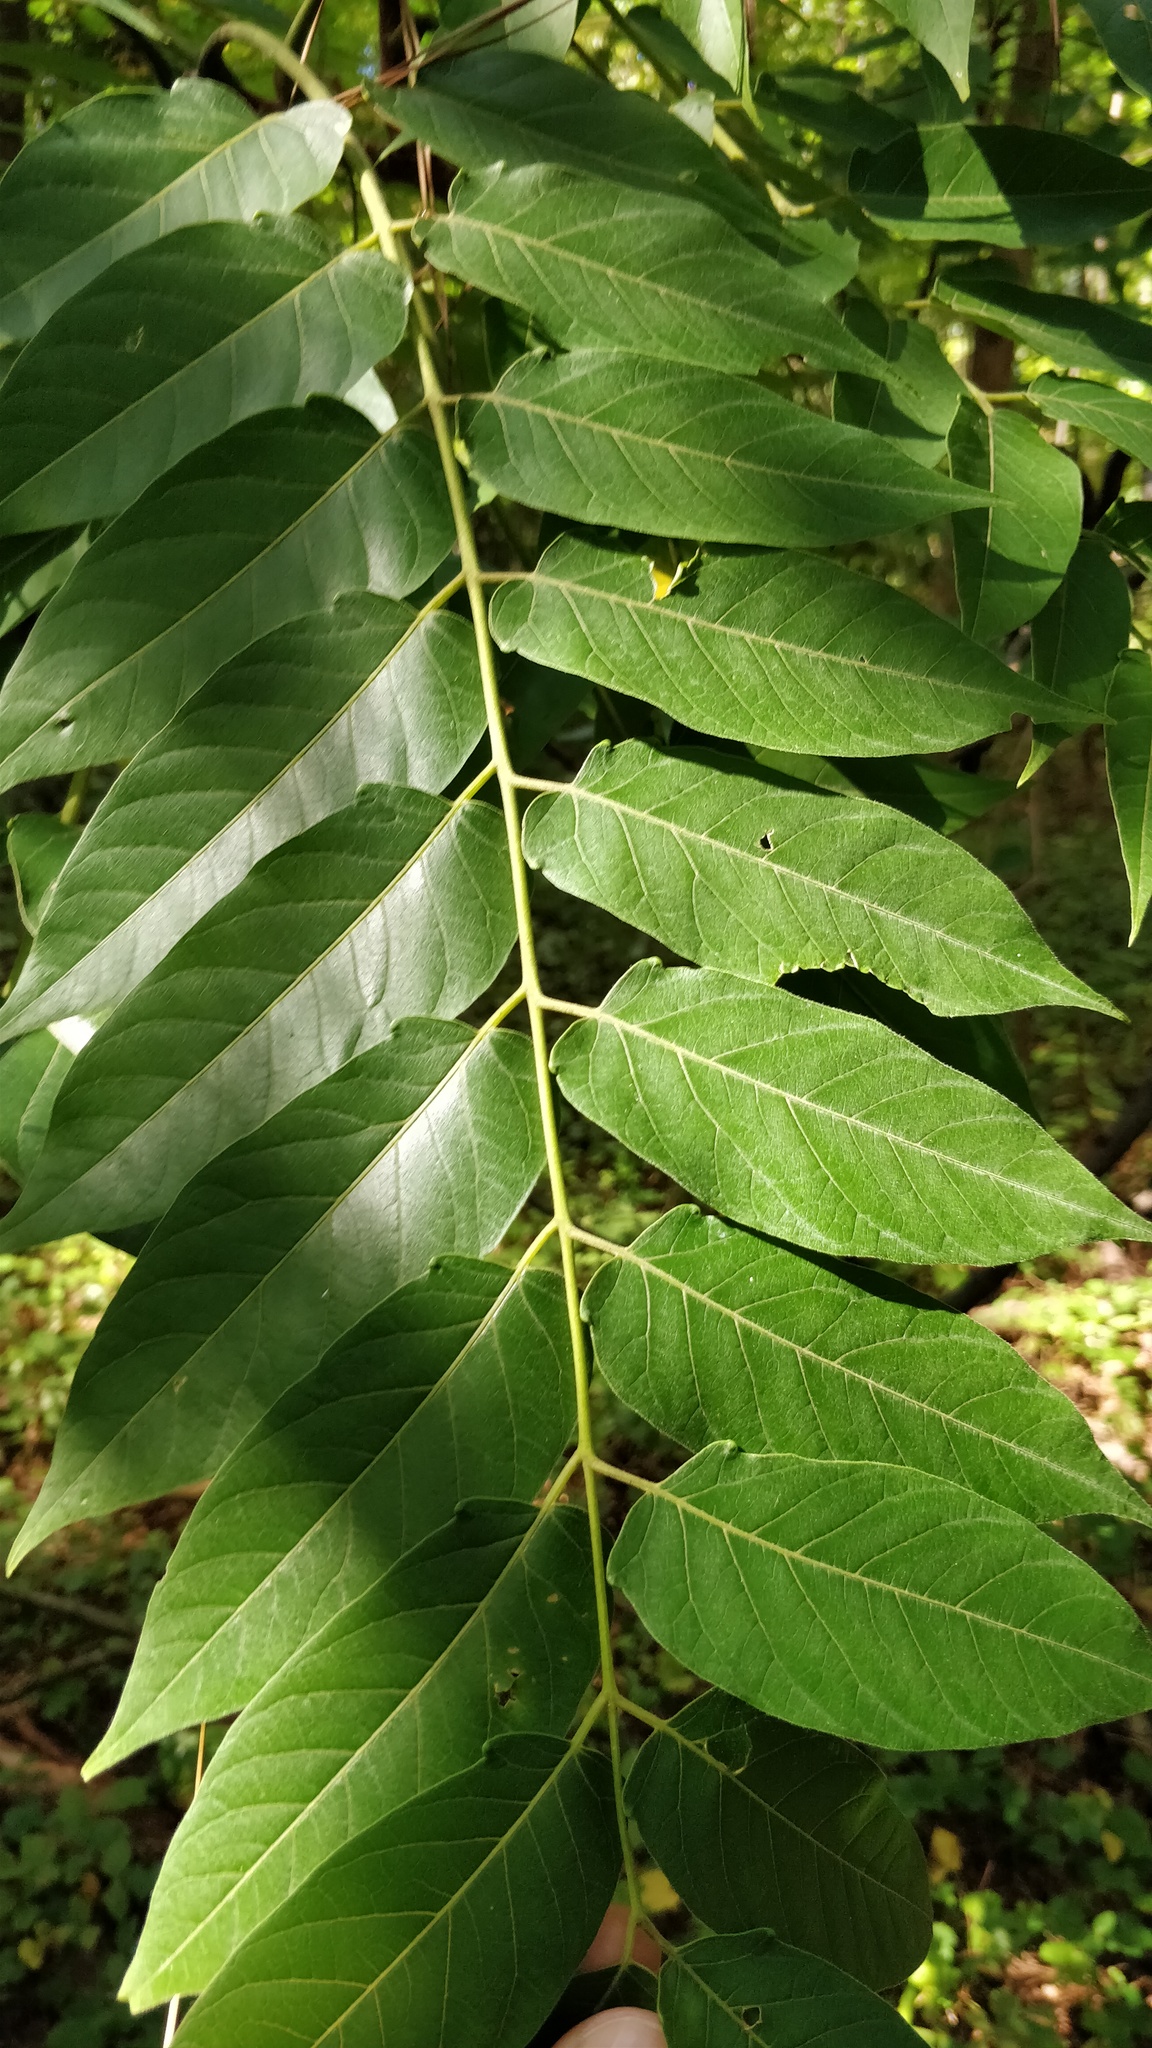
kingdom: Plantae
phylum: Tracheophyta
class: Magnoliopsida
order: Sapindales
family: Simaroubaceae
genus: Ailanthus
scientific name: Ailanthus altissima
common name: Tree-of-heaven
